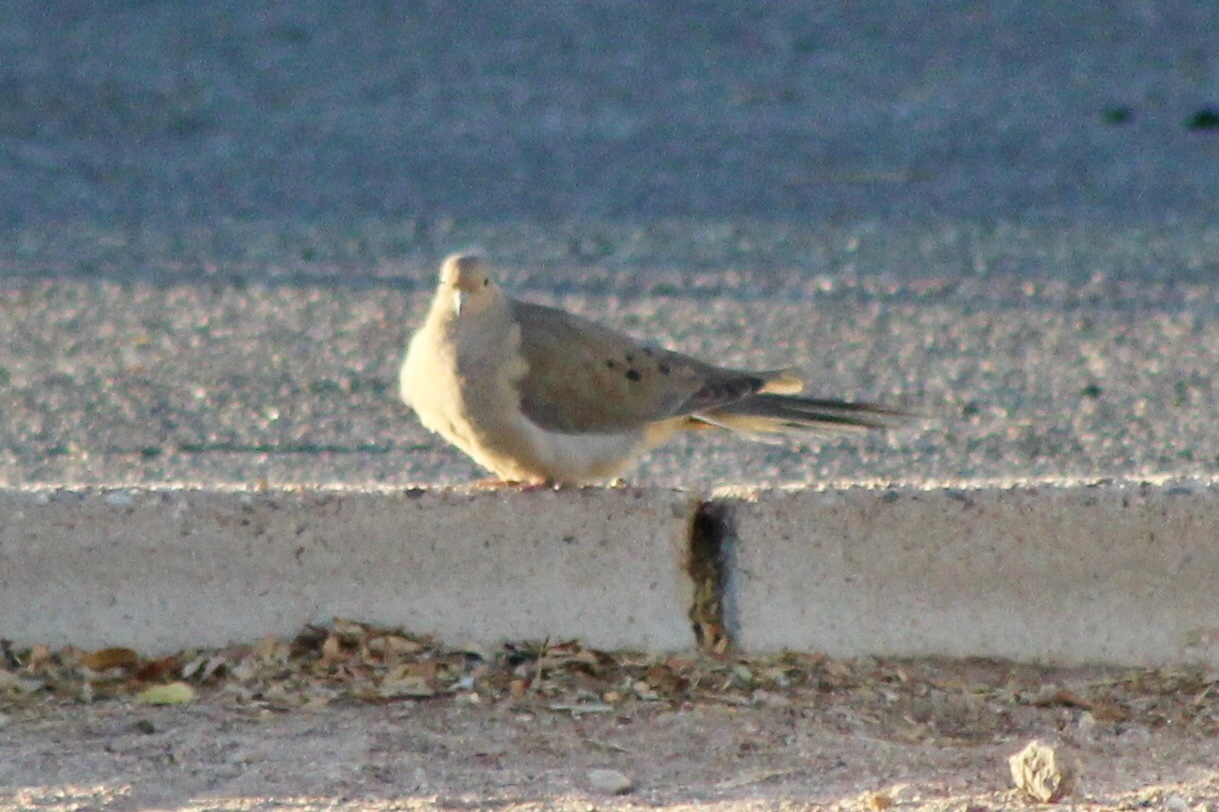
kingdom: Animalia
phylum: Chordata
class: Aves
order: Columbiformes
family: Columbidae
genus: Zenaida
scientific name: Zenaida macroura
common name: Mourning dove
